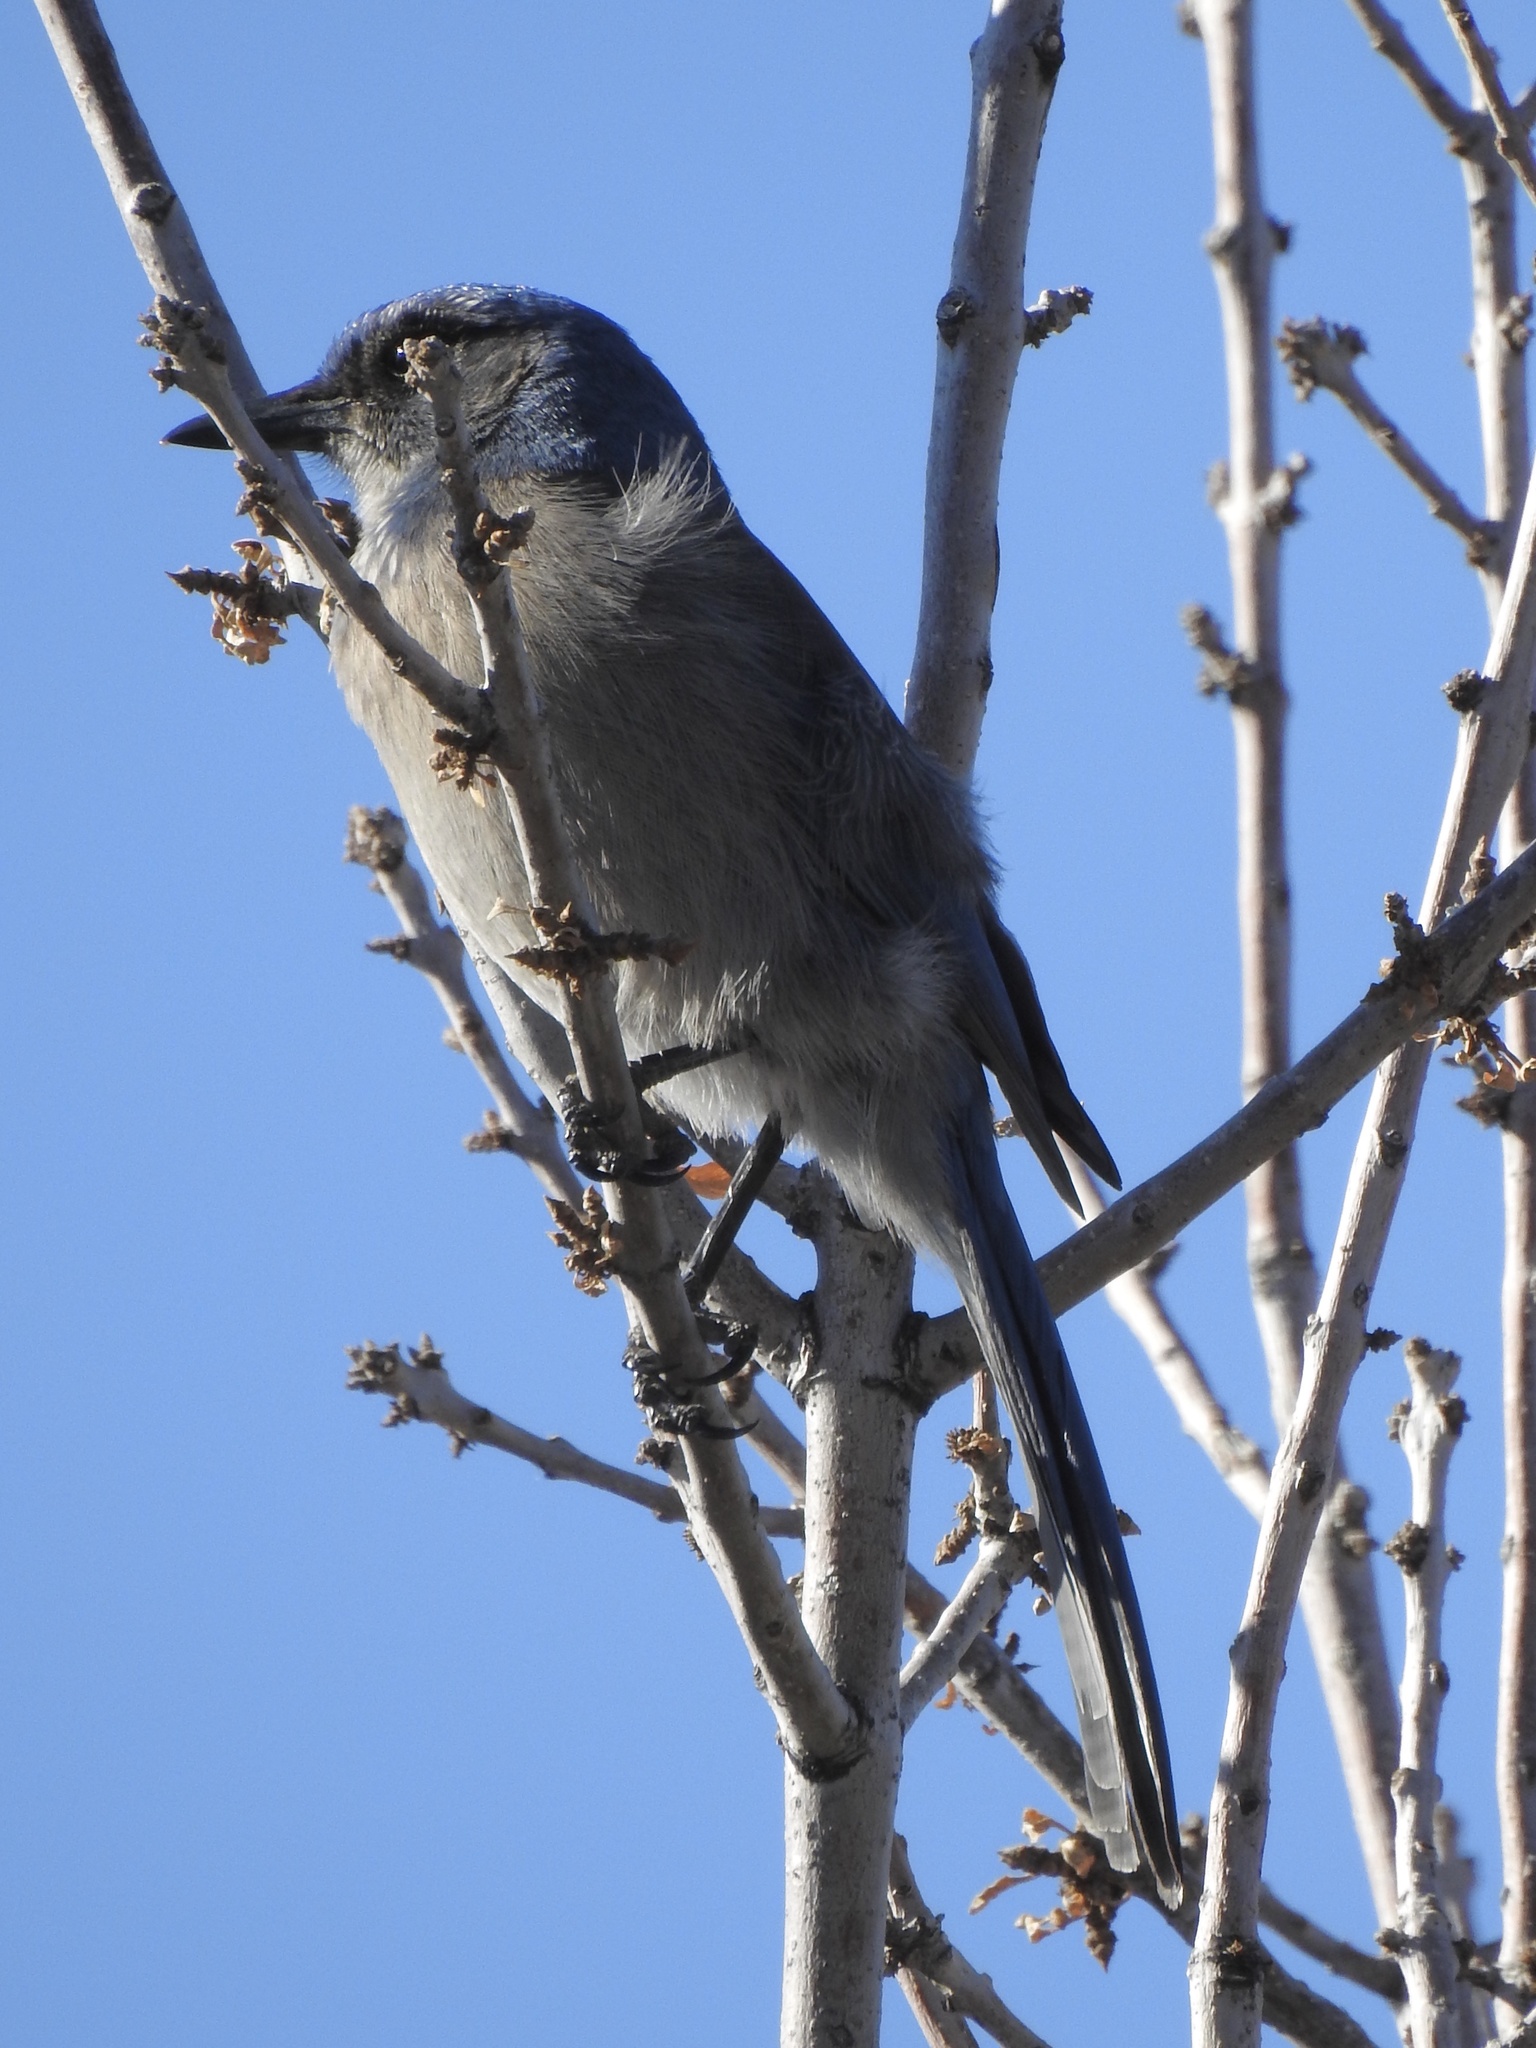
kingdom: Animalia
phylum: Chordata
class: Aves
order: Passeriformes
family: Corvidae
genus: Aphelocoma
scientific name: Aphelocoma woodhouseii
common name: Woodhouse's scrub-jay
